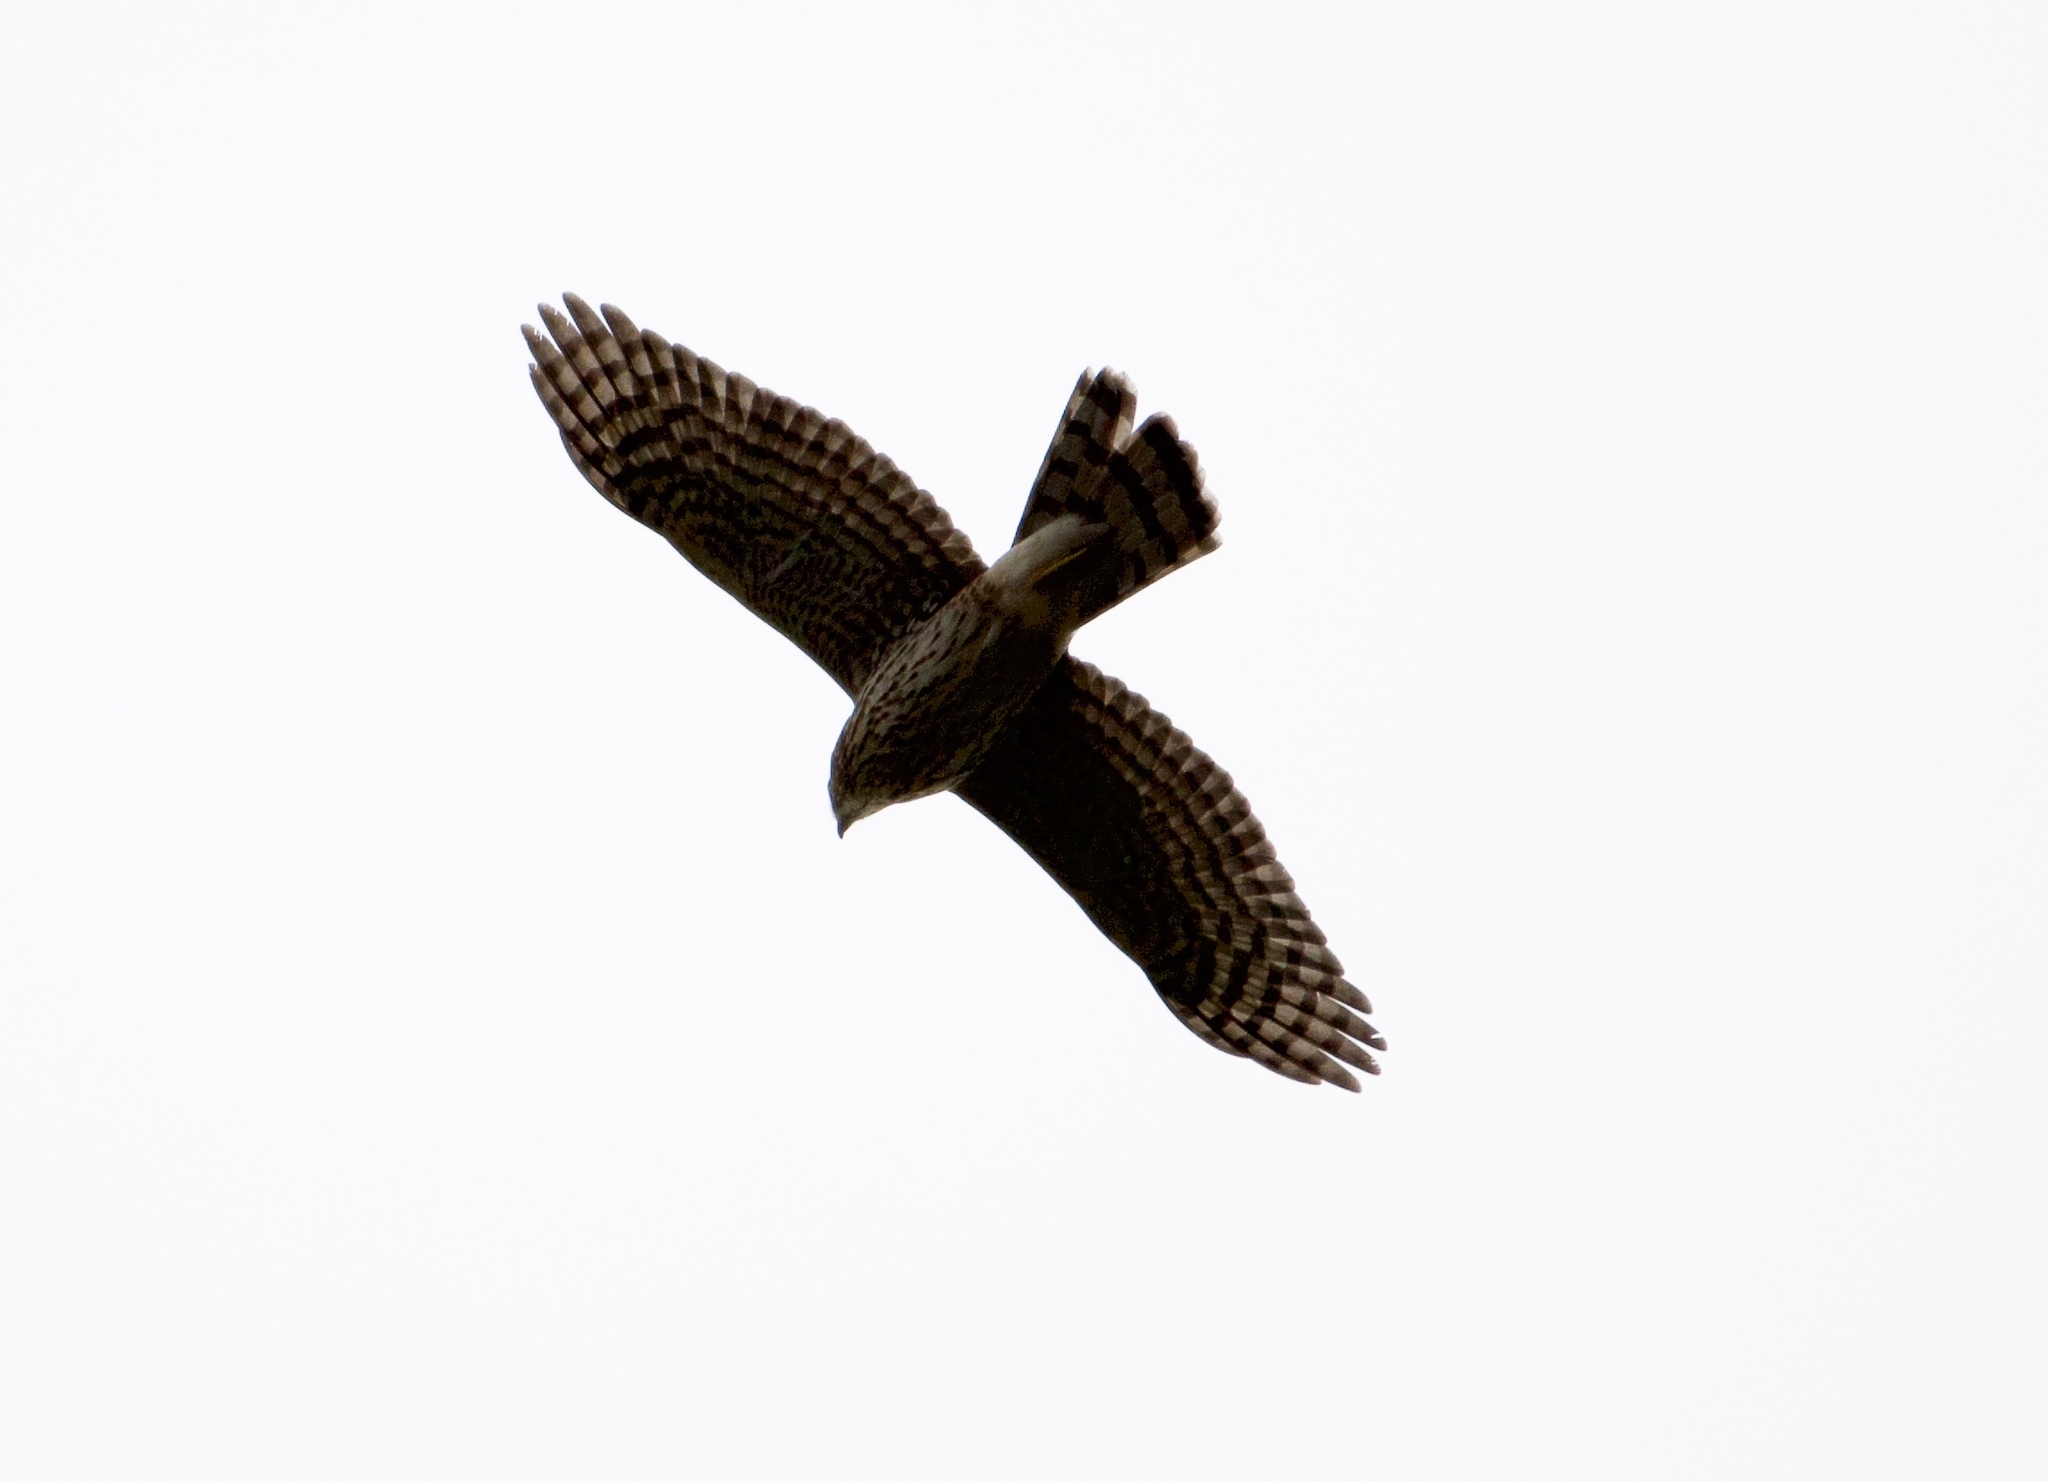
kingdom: Animalia
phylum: Chordata
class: Aves
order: Accipitriformes
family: Accipitridae
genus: Accipiter
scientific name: Accipiter cooperii
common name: Cooper's hawk
